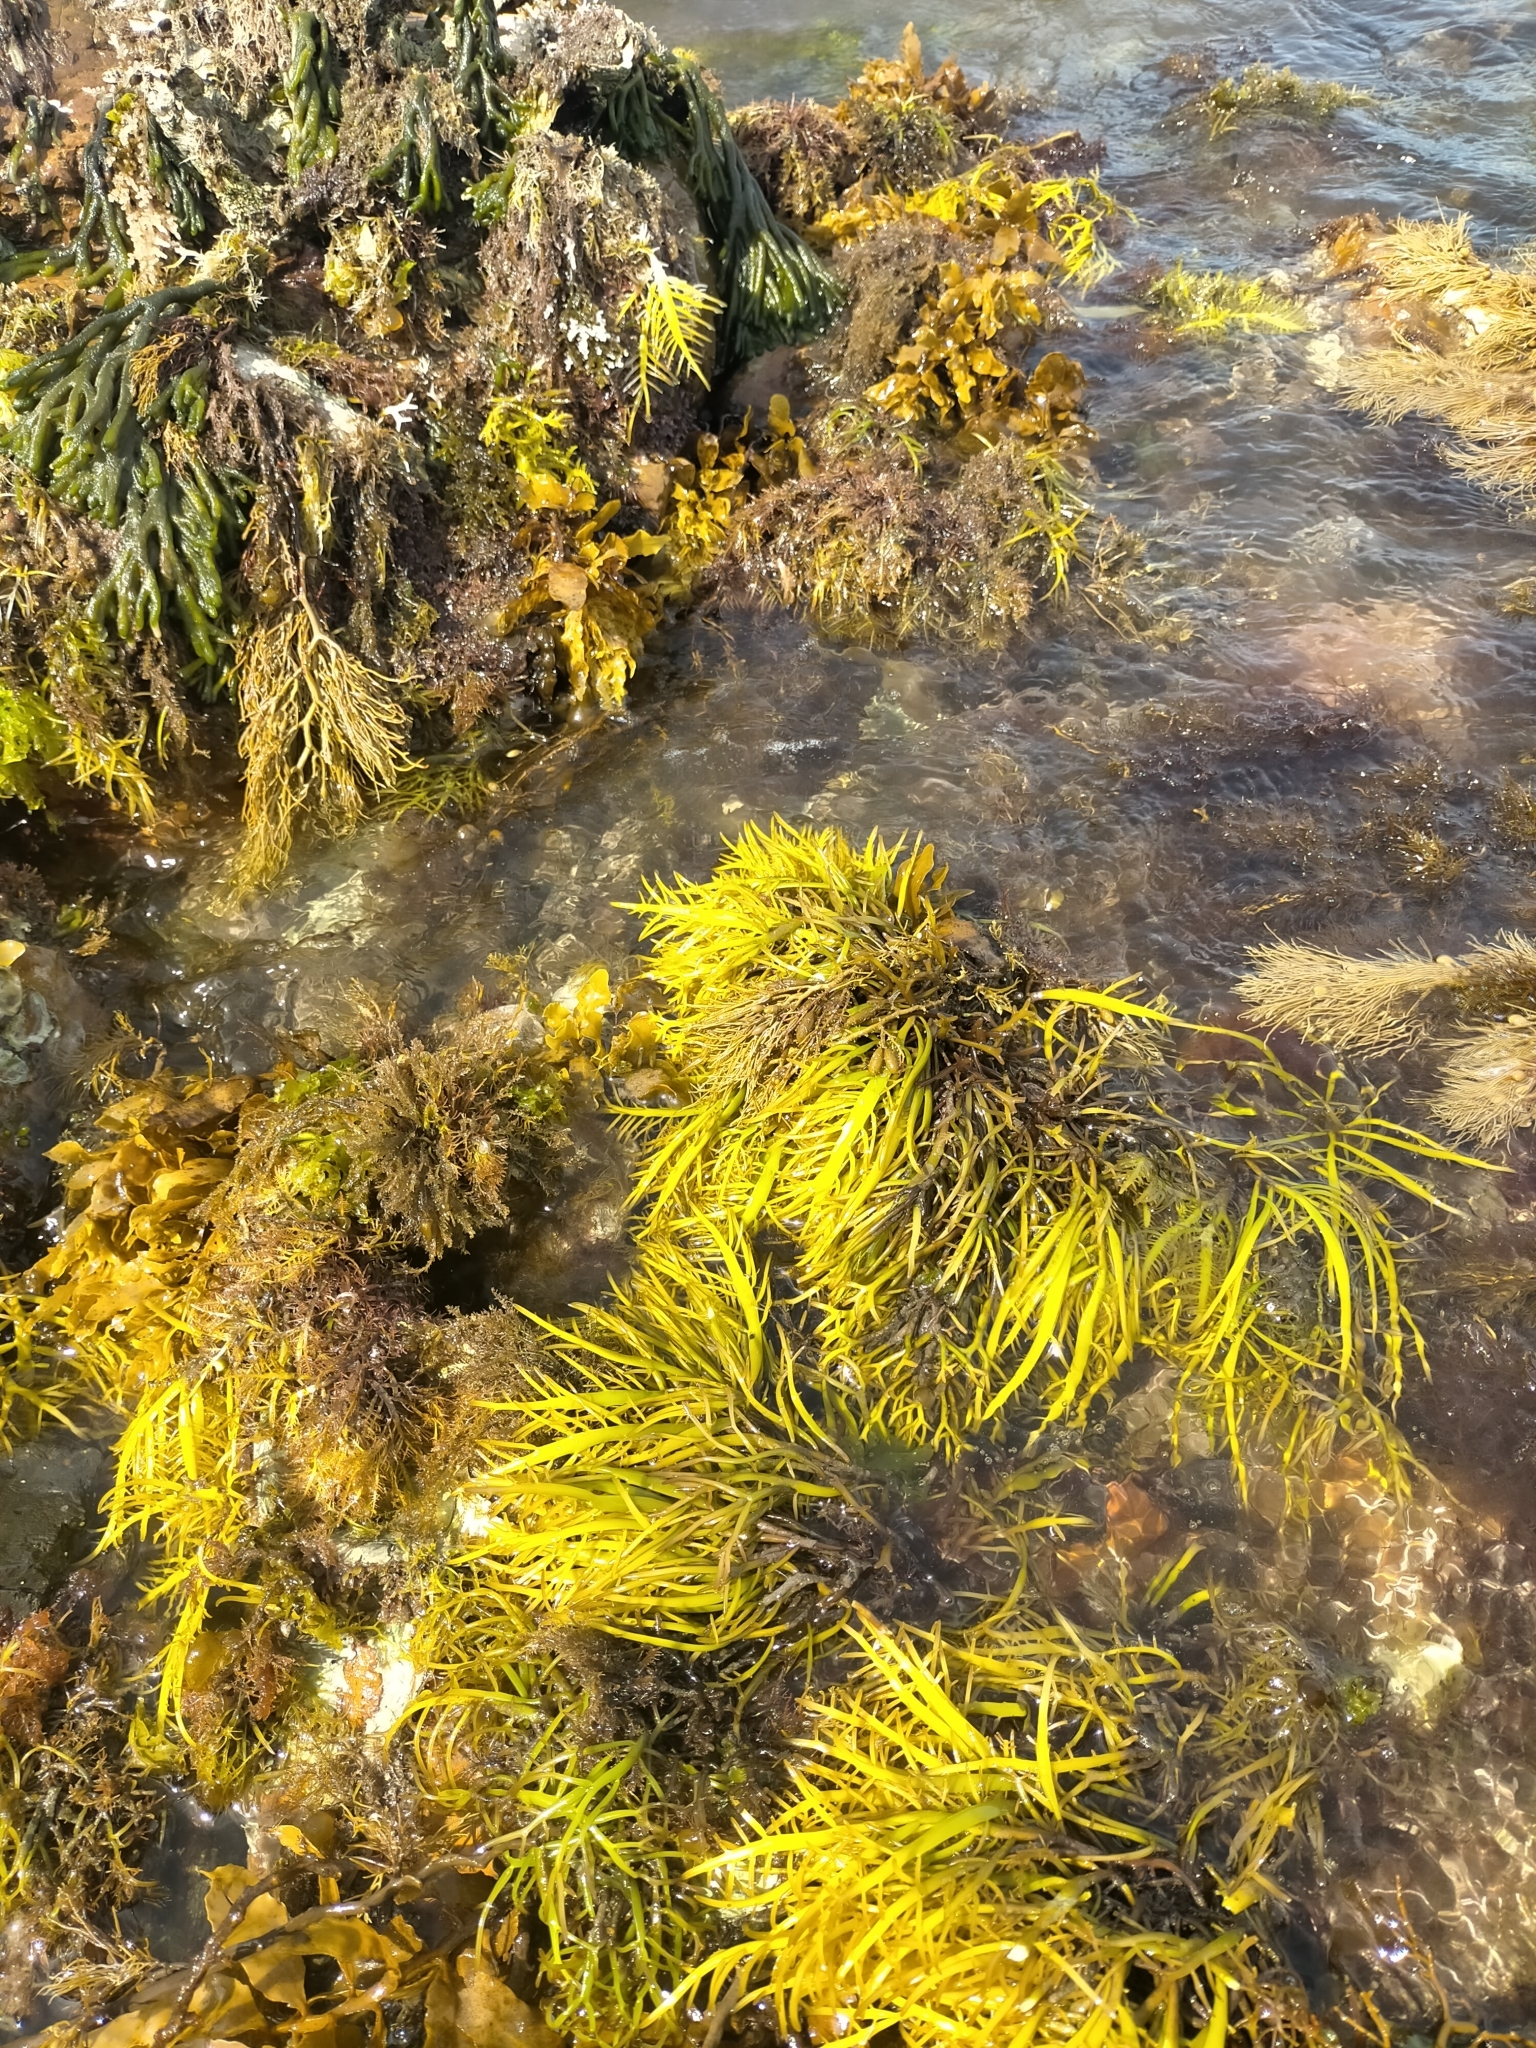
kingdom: Chromista
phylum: Ochrophyta
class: Phaeophyceae
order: Fucales
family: Seirococcaceae
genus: Phyllospora
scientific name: Phyllospora
